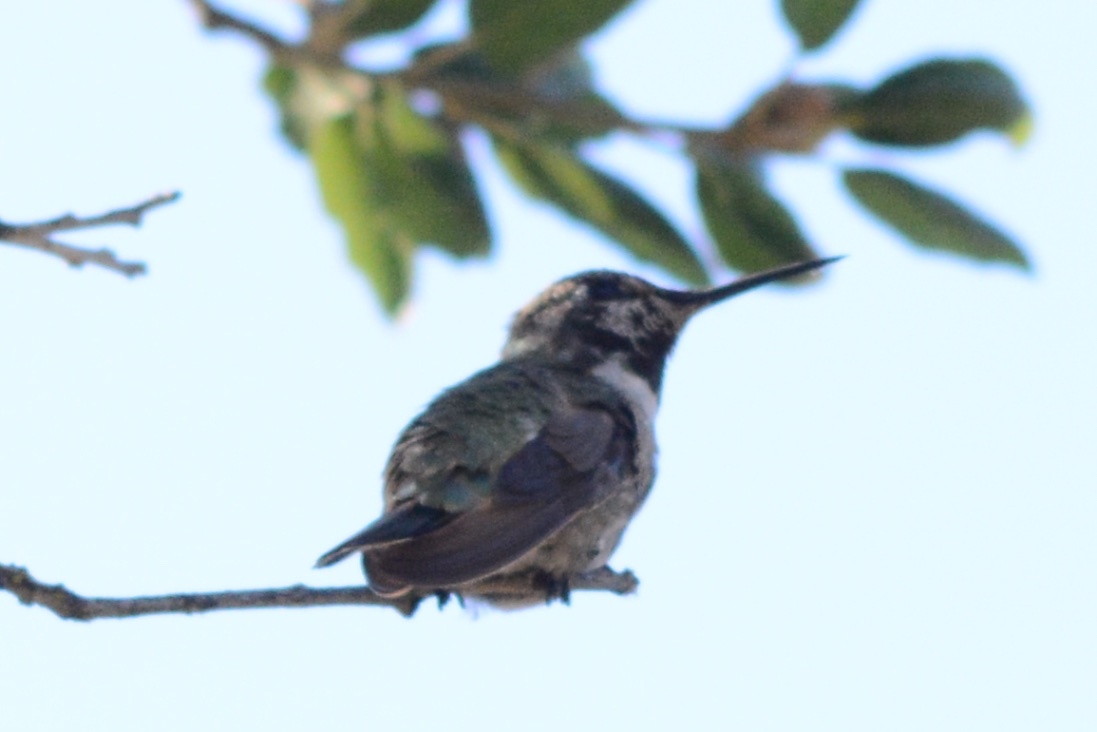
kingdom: Animalia
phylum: Chordata
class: Aves
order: Apodiformes
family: Trochilidae
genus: Calypte
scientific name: Calypte anna
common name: Anna's hummingbird
